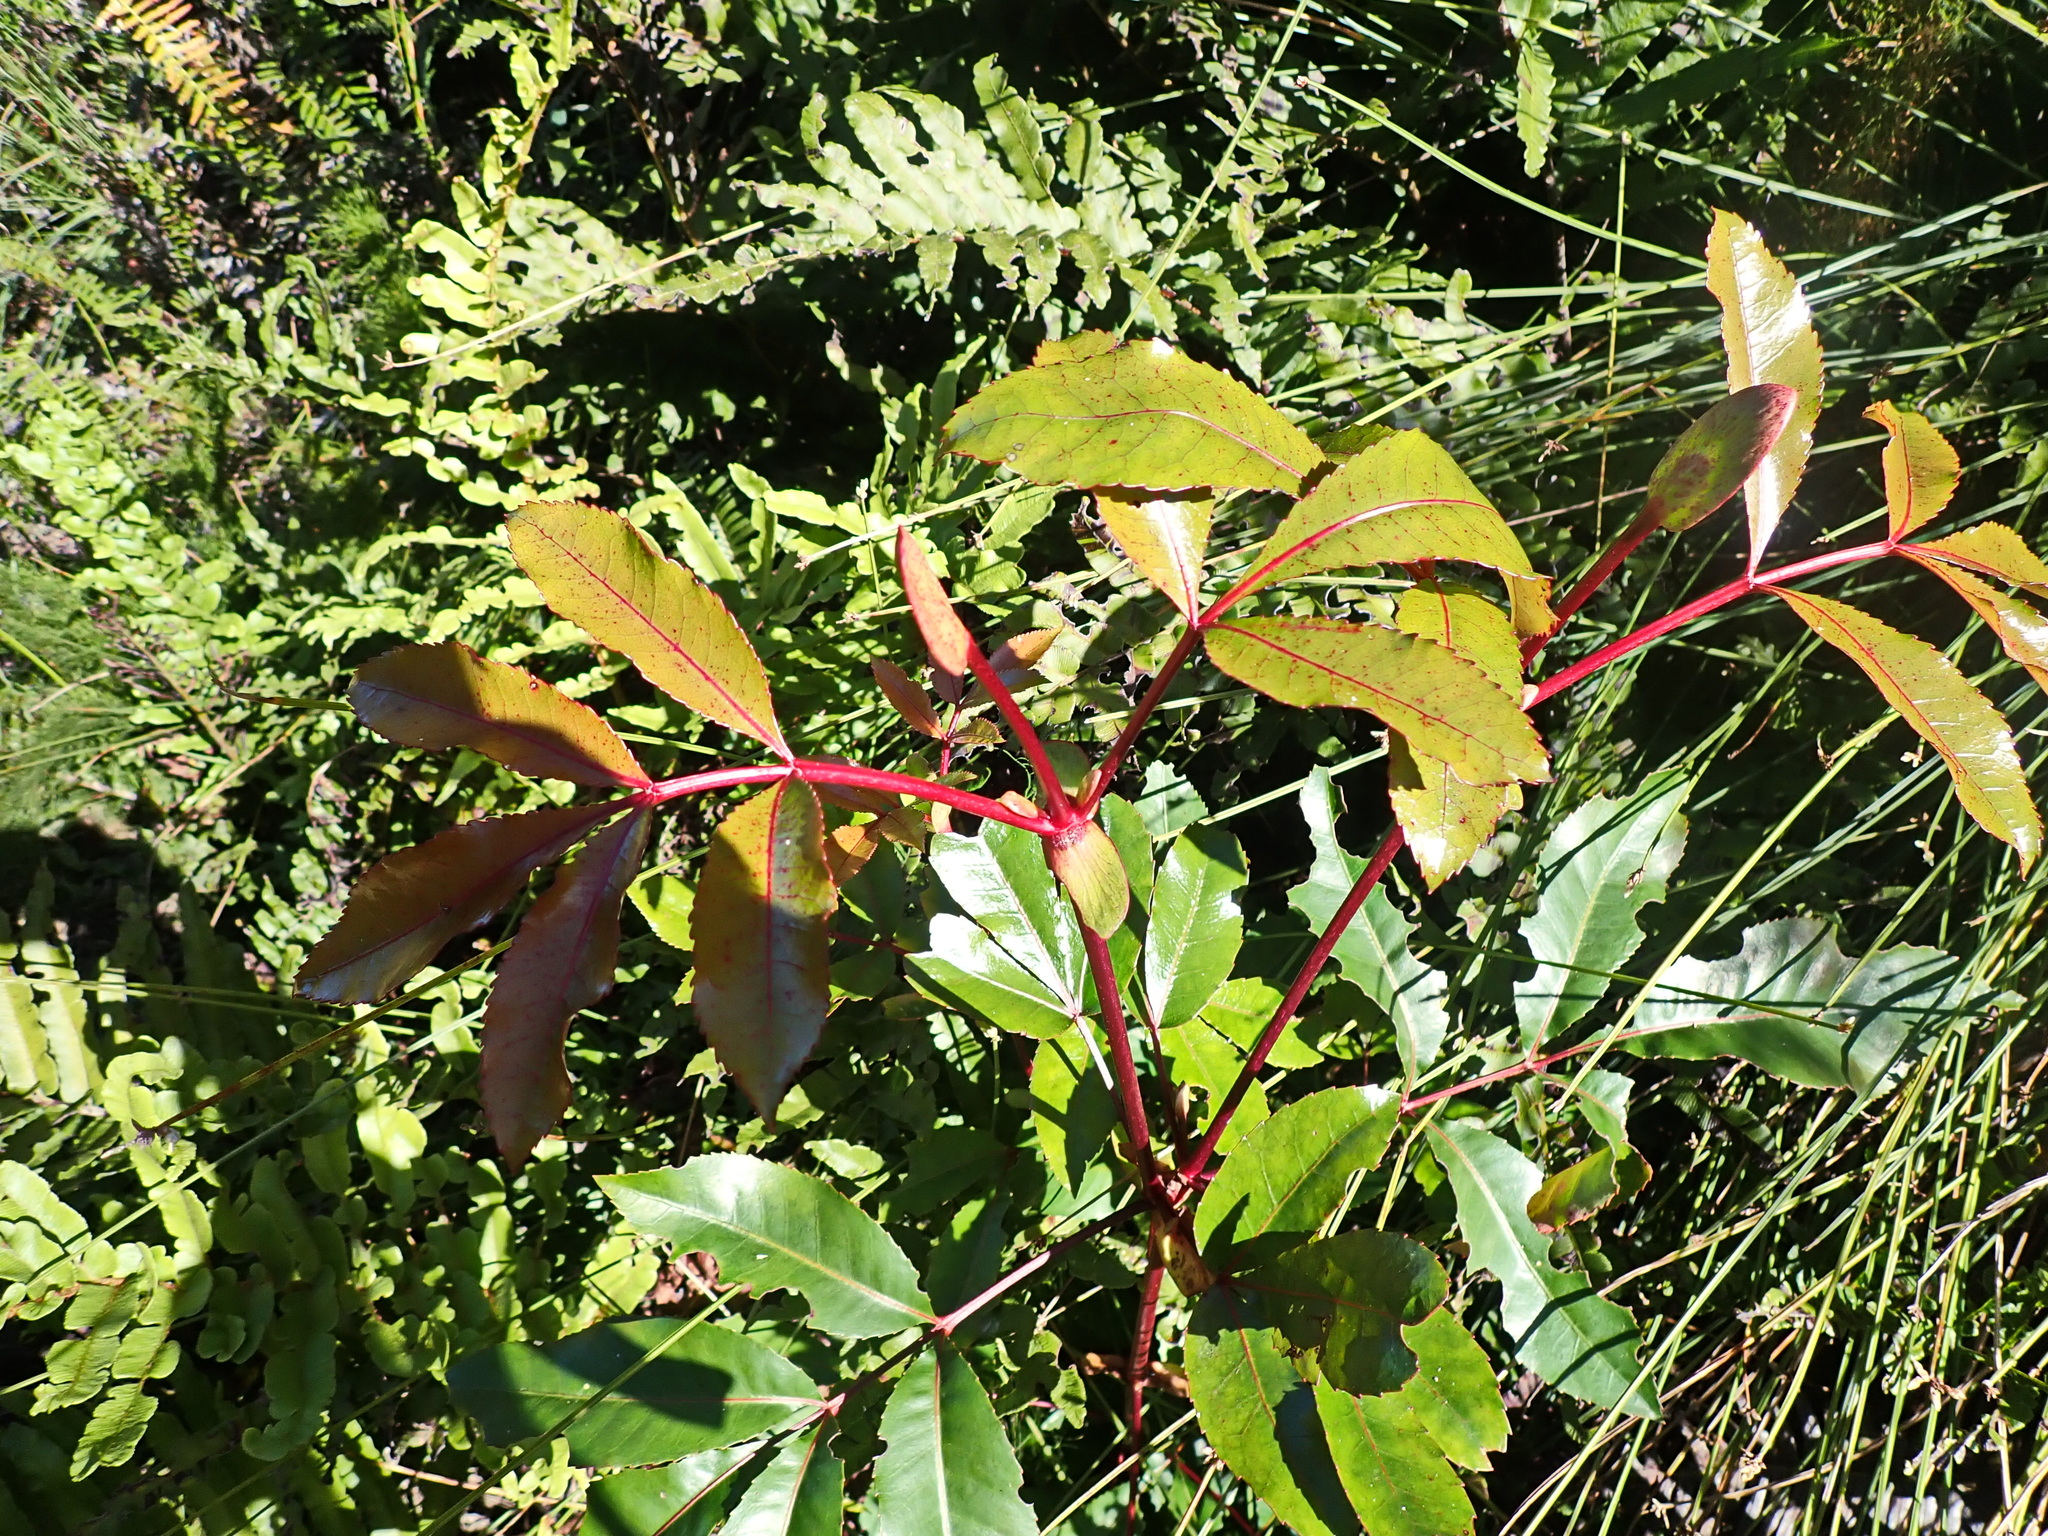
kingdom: Plantae
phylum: Tracheophyta
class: Magnoliopsida
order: Oxalidales
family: Cunoniaceae
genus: Cunonia
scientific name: Cunonia capensis
